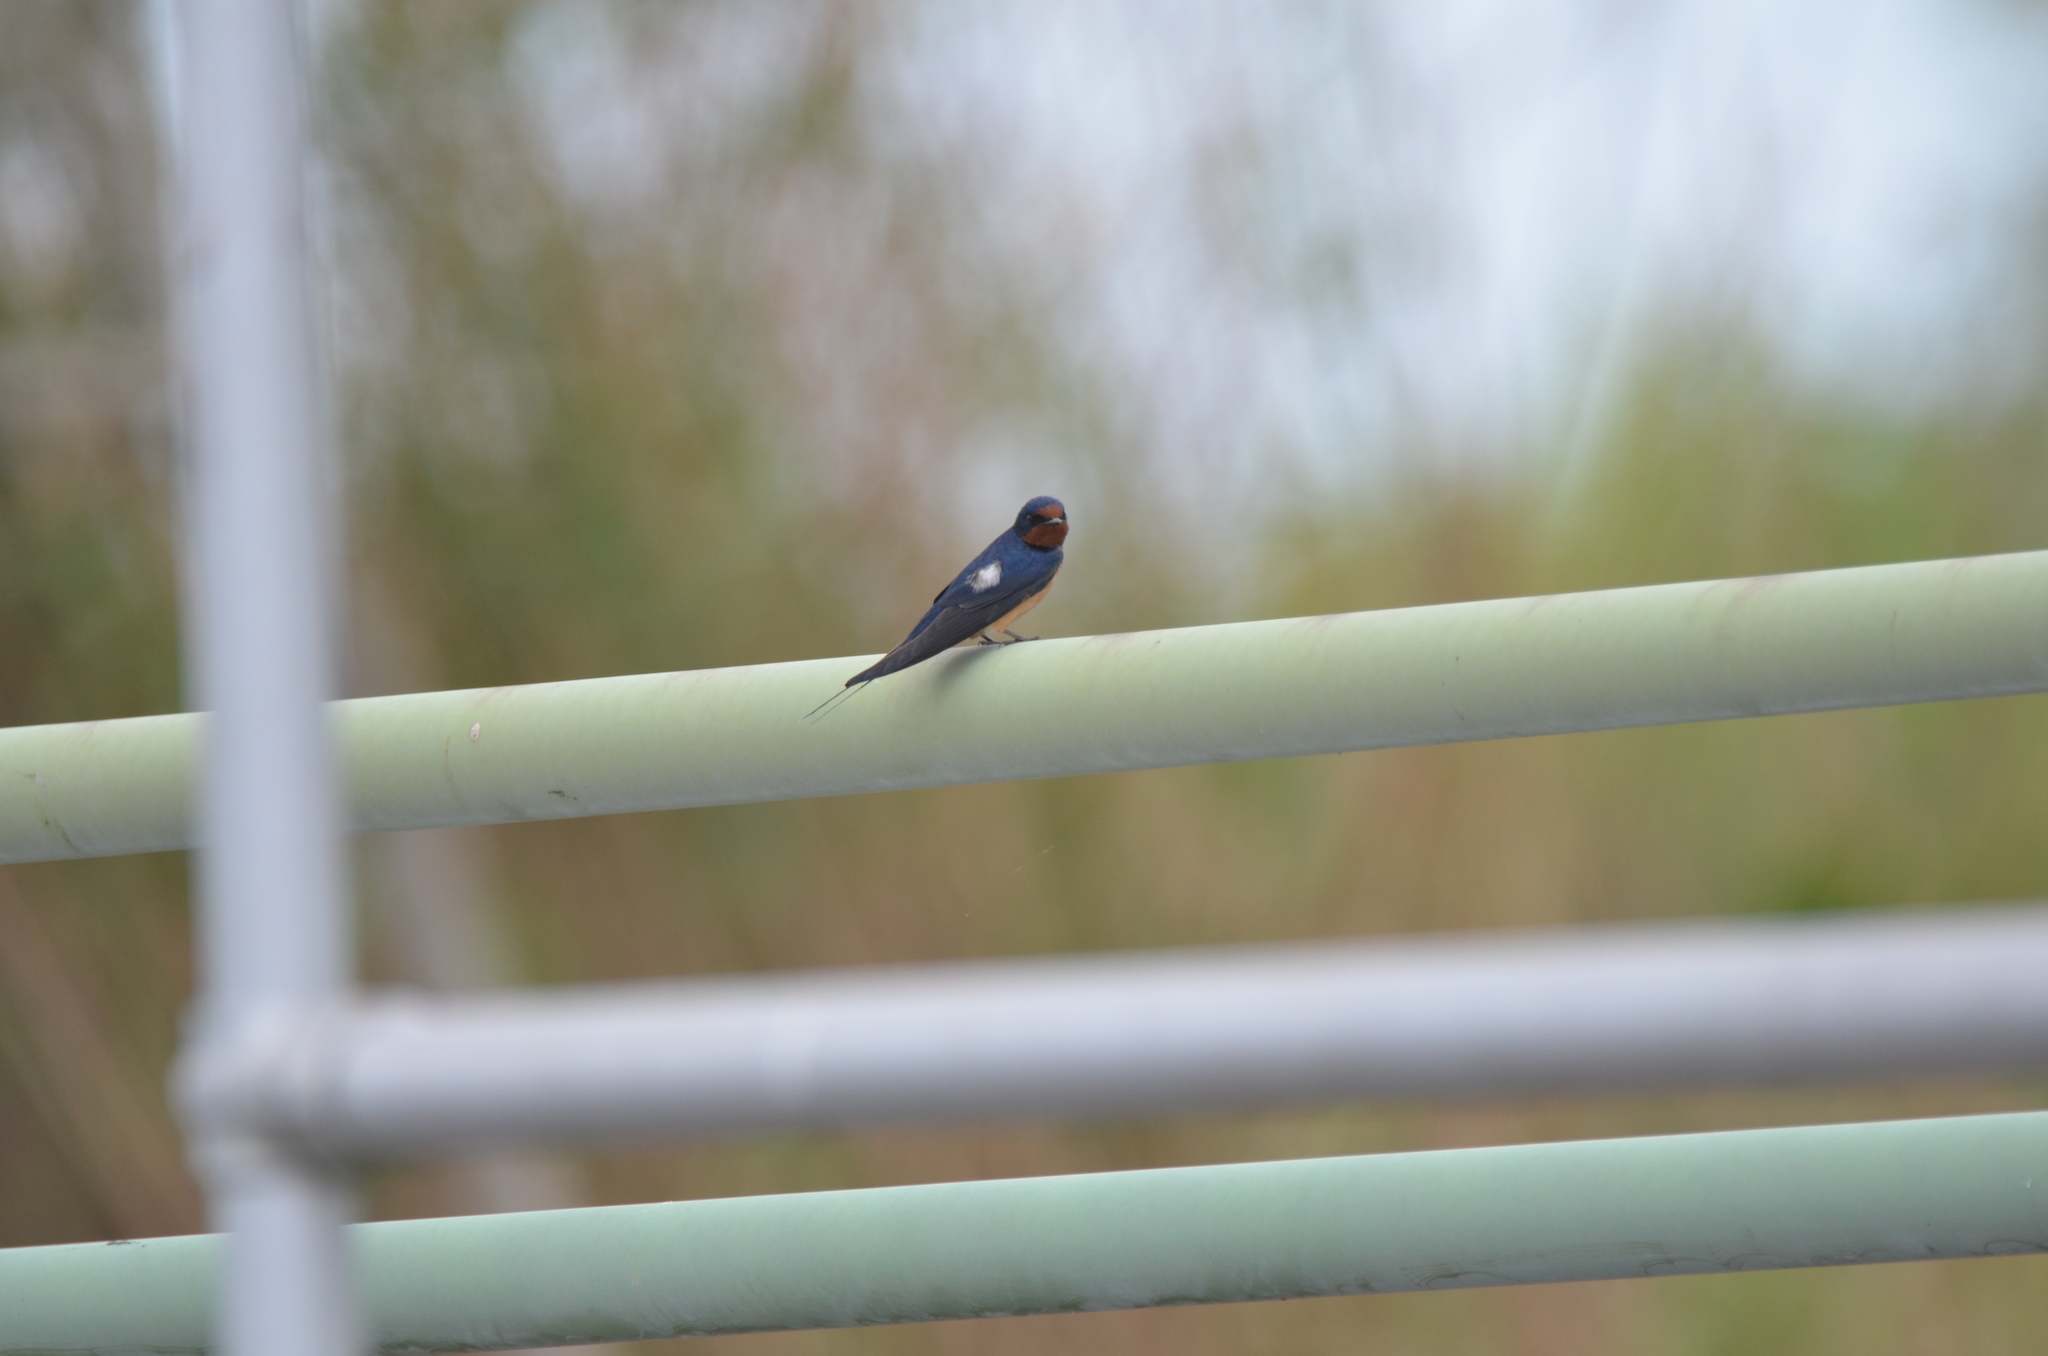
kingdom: Animalia
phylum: Chordata
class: Aves
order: Passeriformes
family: Hirundinidae
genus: Hirundo
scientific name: Hirundo rustica
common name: Barn swallow
